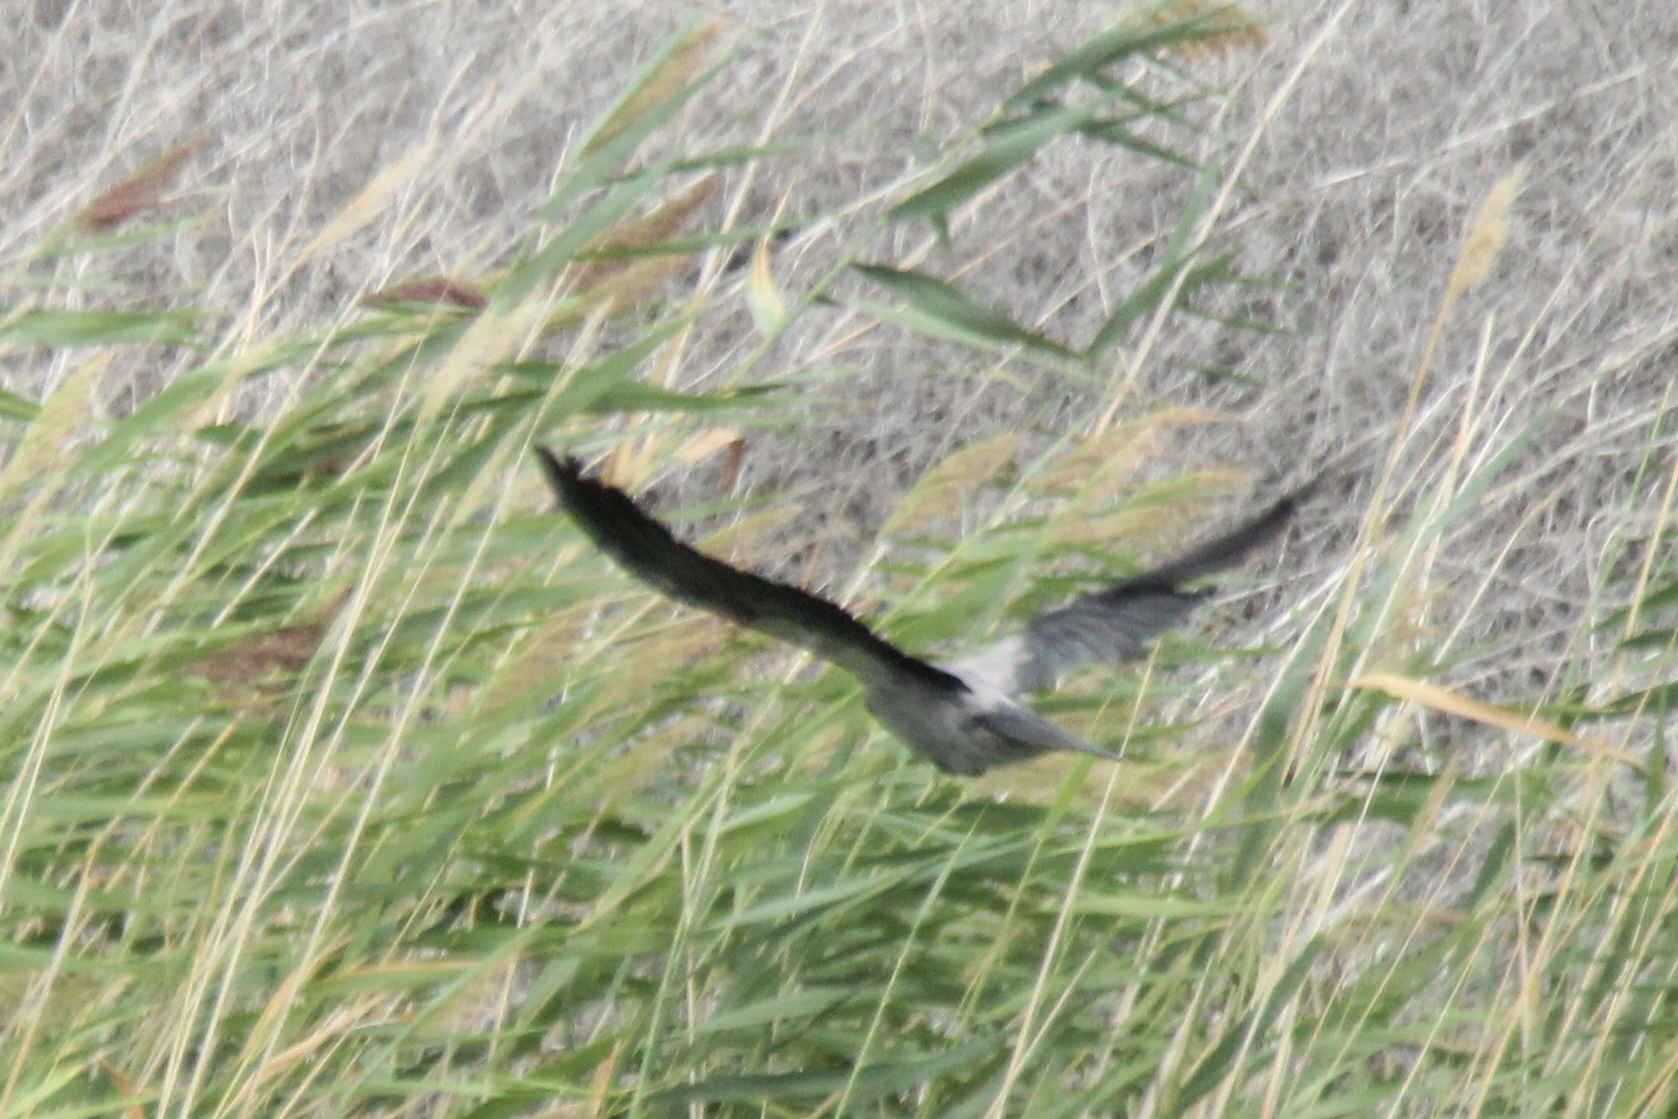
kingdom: Animalia
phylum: Chordata
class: Aves
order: Passeriformes
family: Corvidae
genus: Corvus
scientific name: Corvus cornix
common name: Hooded crow
